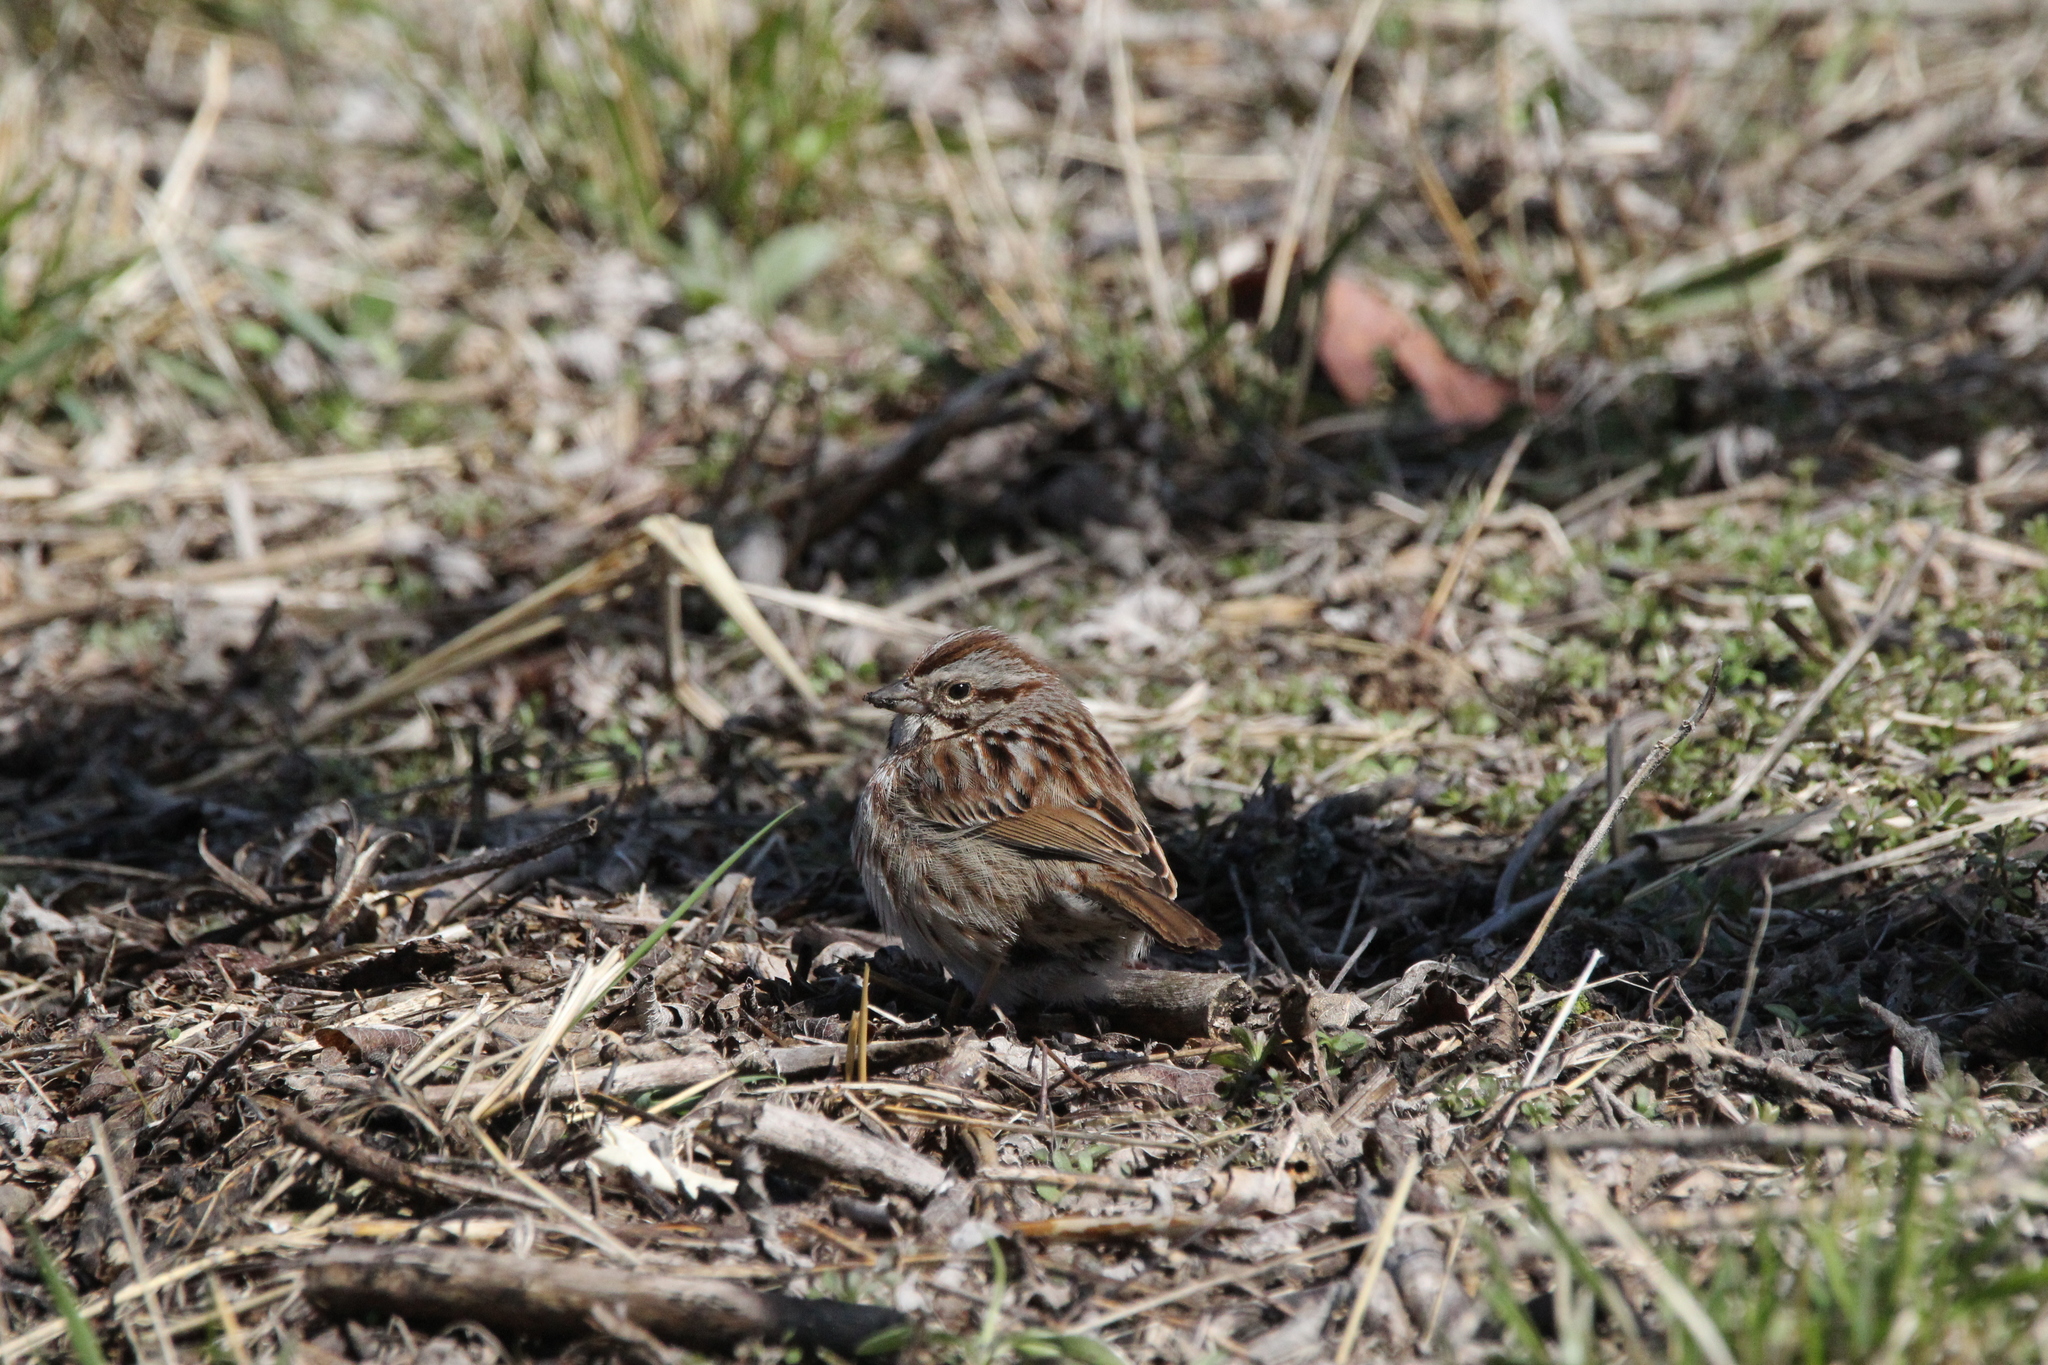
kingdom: Animalia
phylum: Chordata
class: Aves
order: Passeriformes
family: Passerellidae
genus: Melospiza
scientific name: Melospiza melodia
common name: Song sparrow
